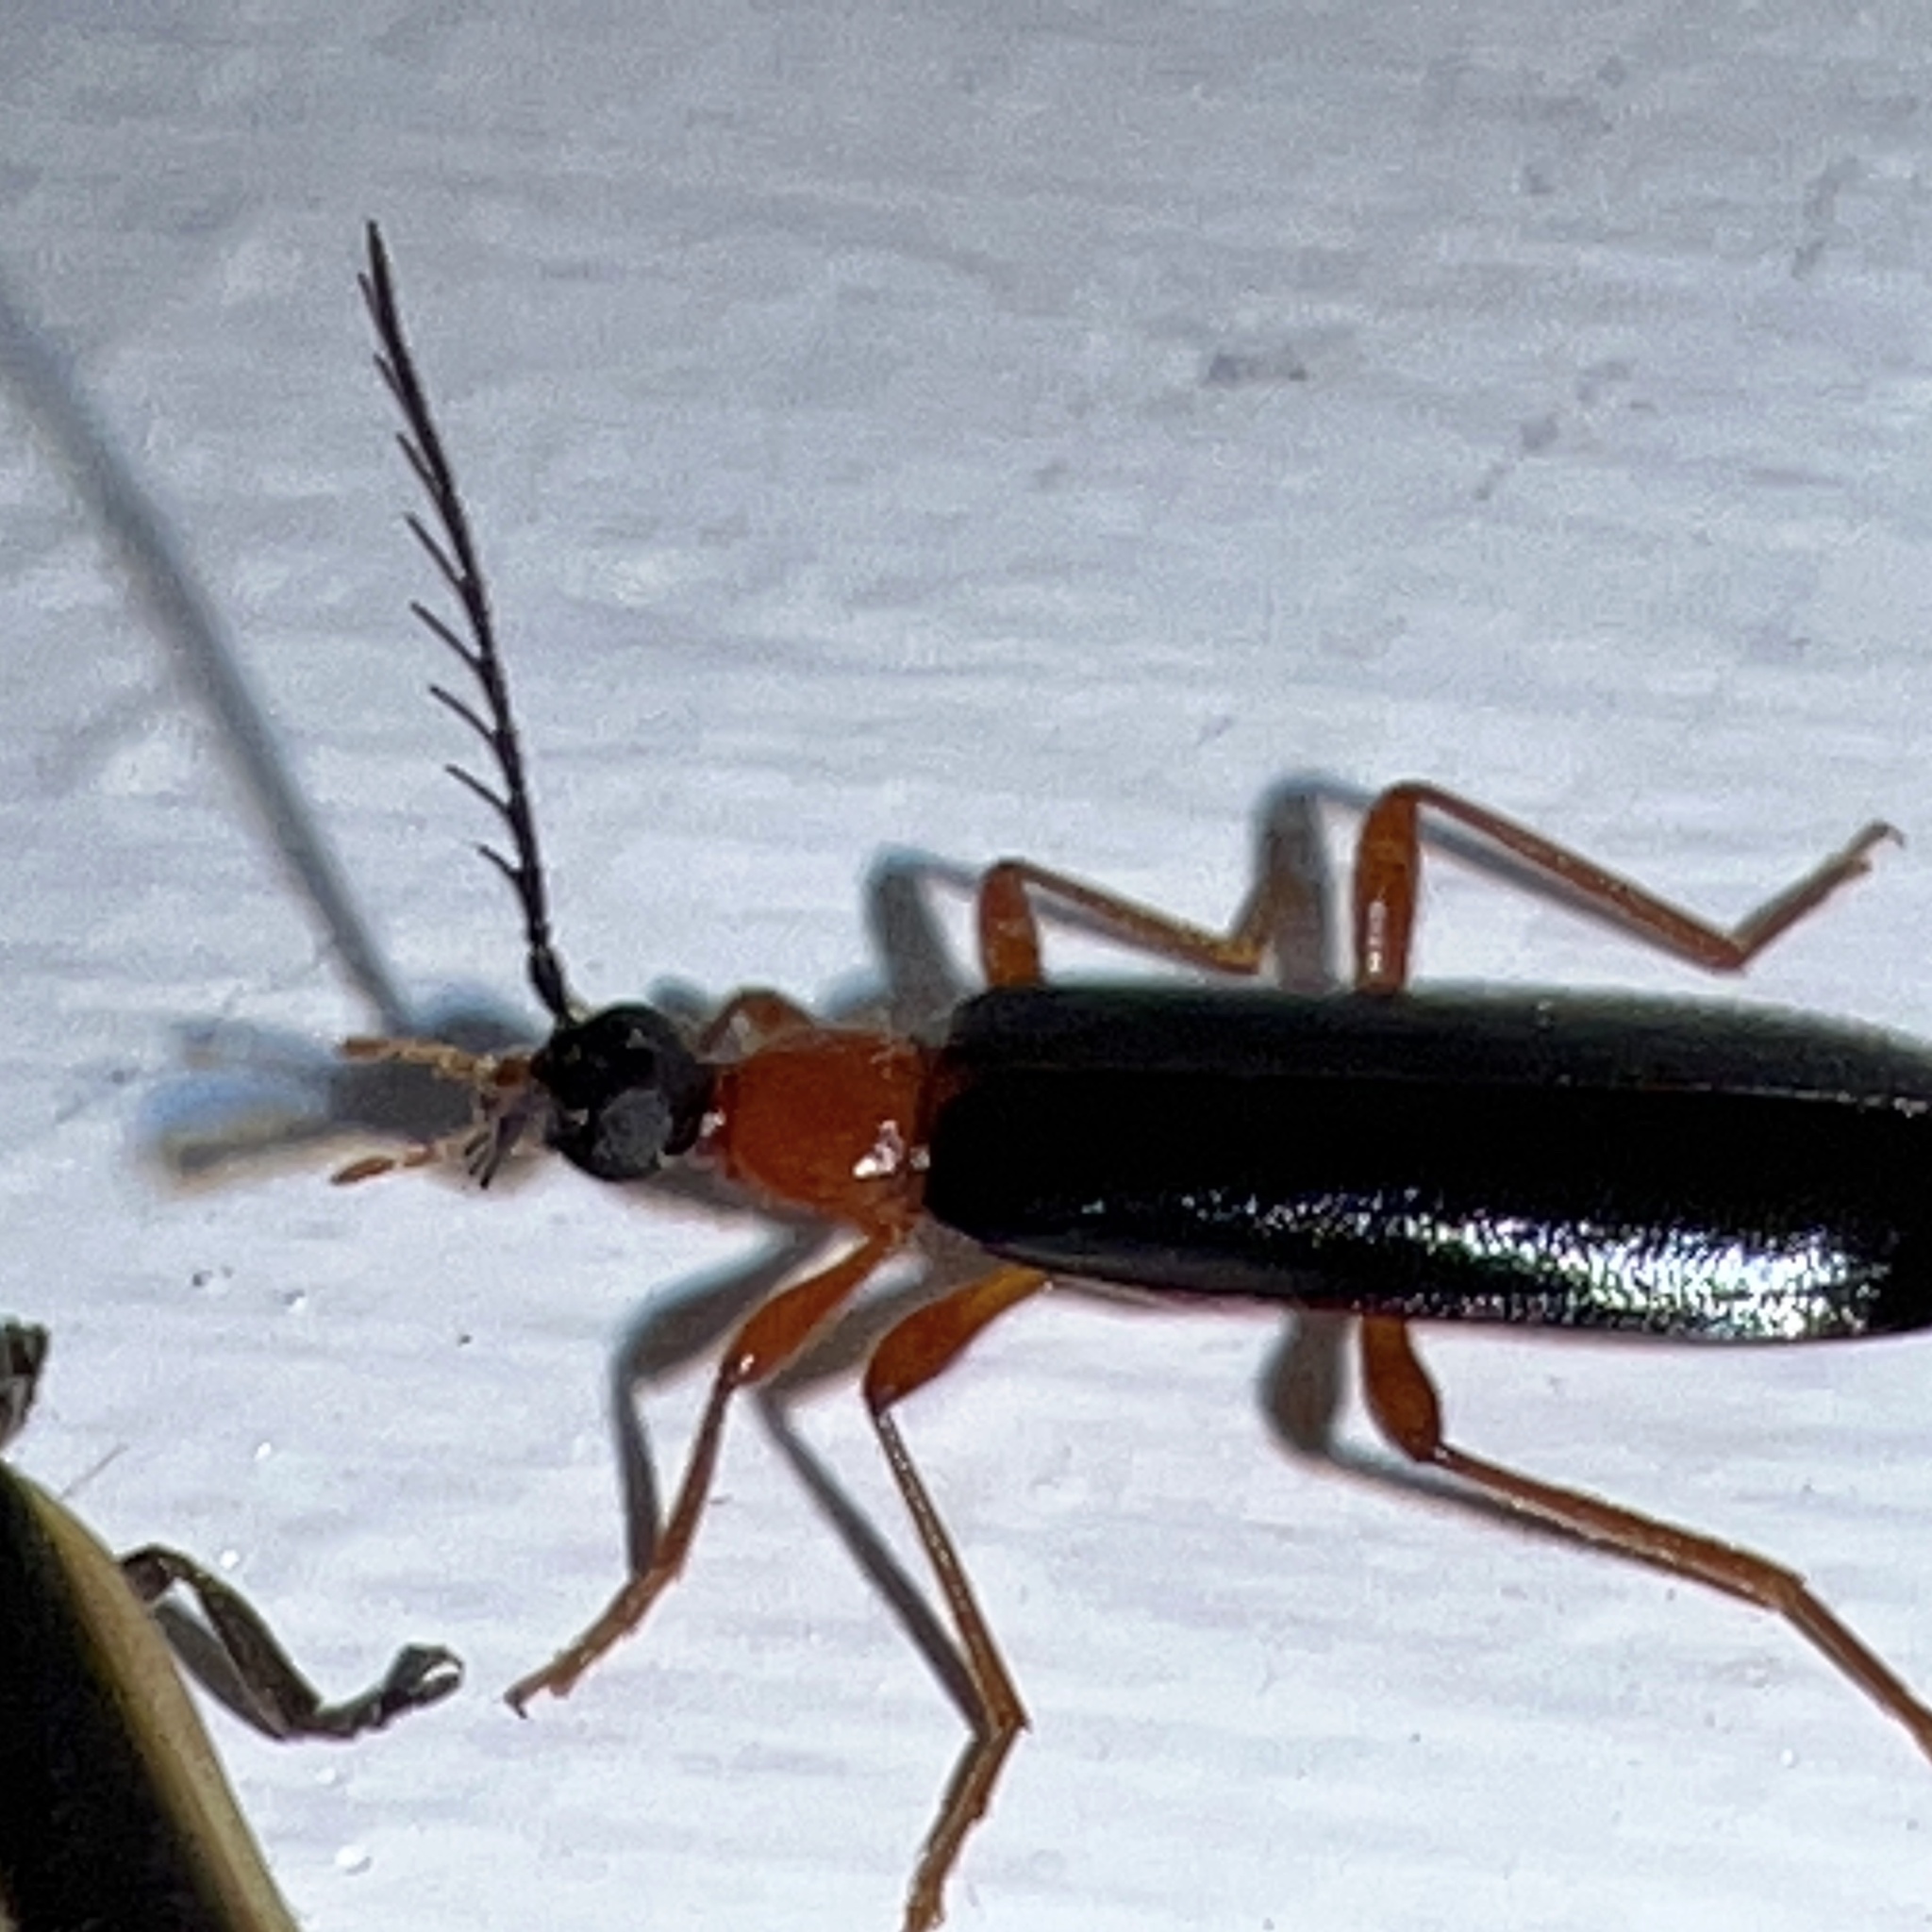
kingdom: Animalia
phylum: Arthropoda
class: Insecta
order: Coleoptera
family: Pyrochroidae
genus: Dendroides
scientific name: Dendroides canadensis
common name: Canada fire-colored beetle
